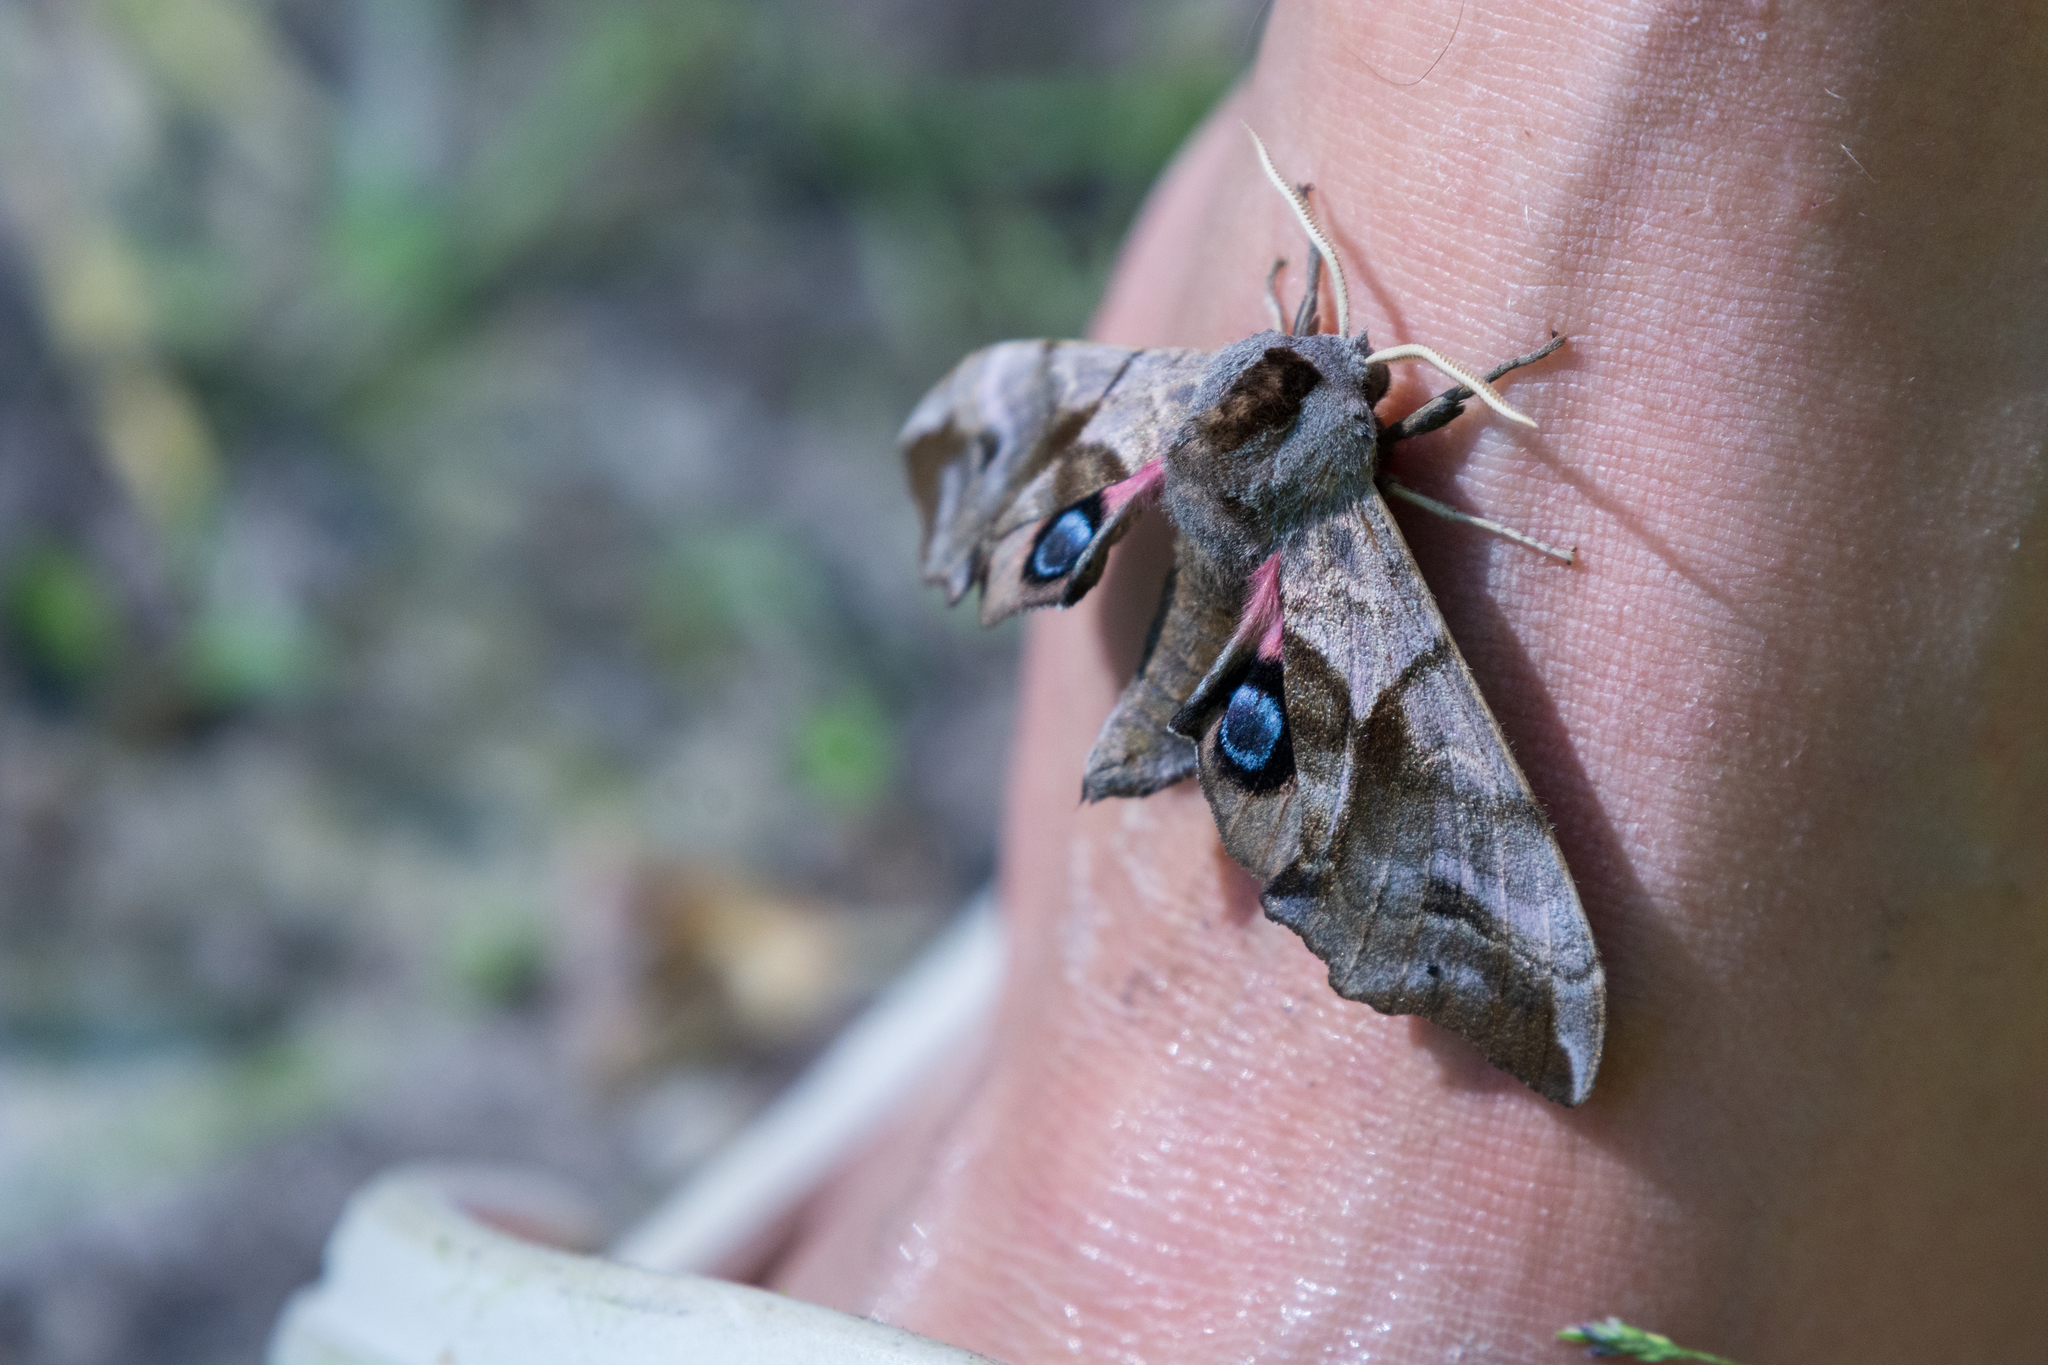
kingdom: Animalia
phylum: Arthropoda
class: Insecta
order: Lepidoptera
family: Sphingidae
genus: Smerinthus
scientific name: Smerinthus ocellata
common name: Eyed hawk-moth
